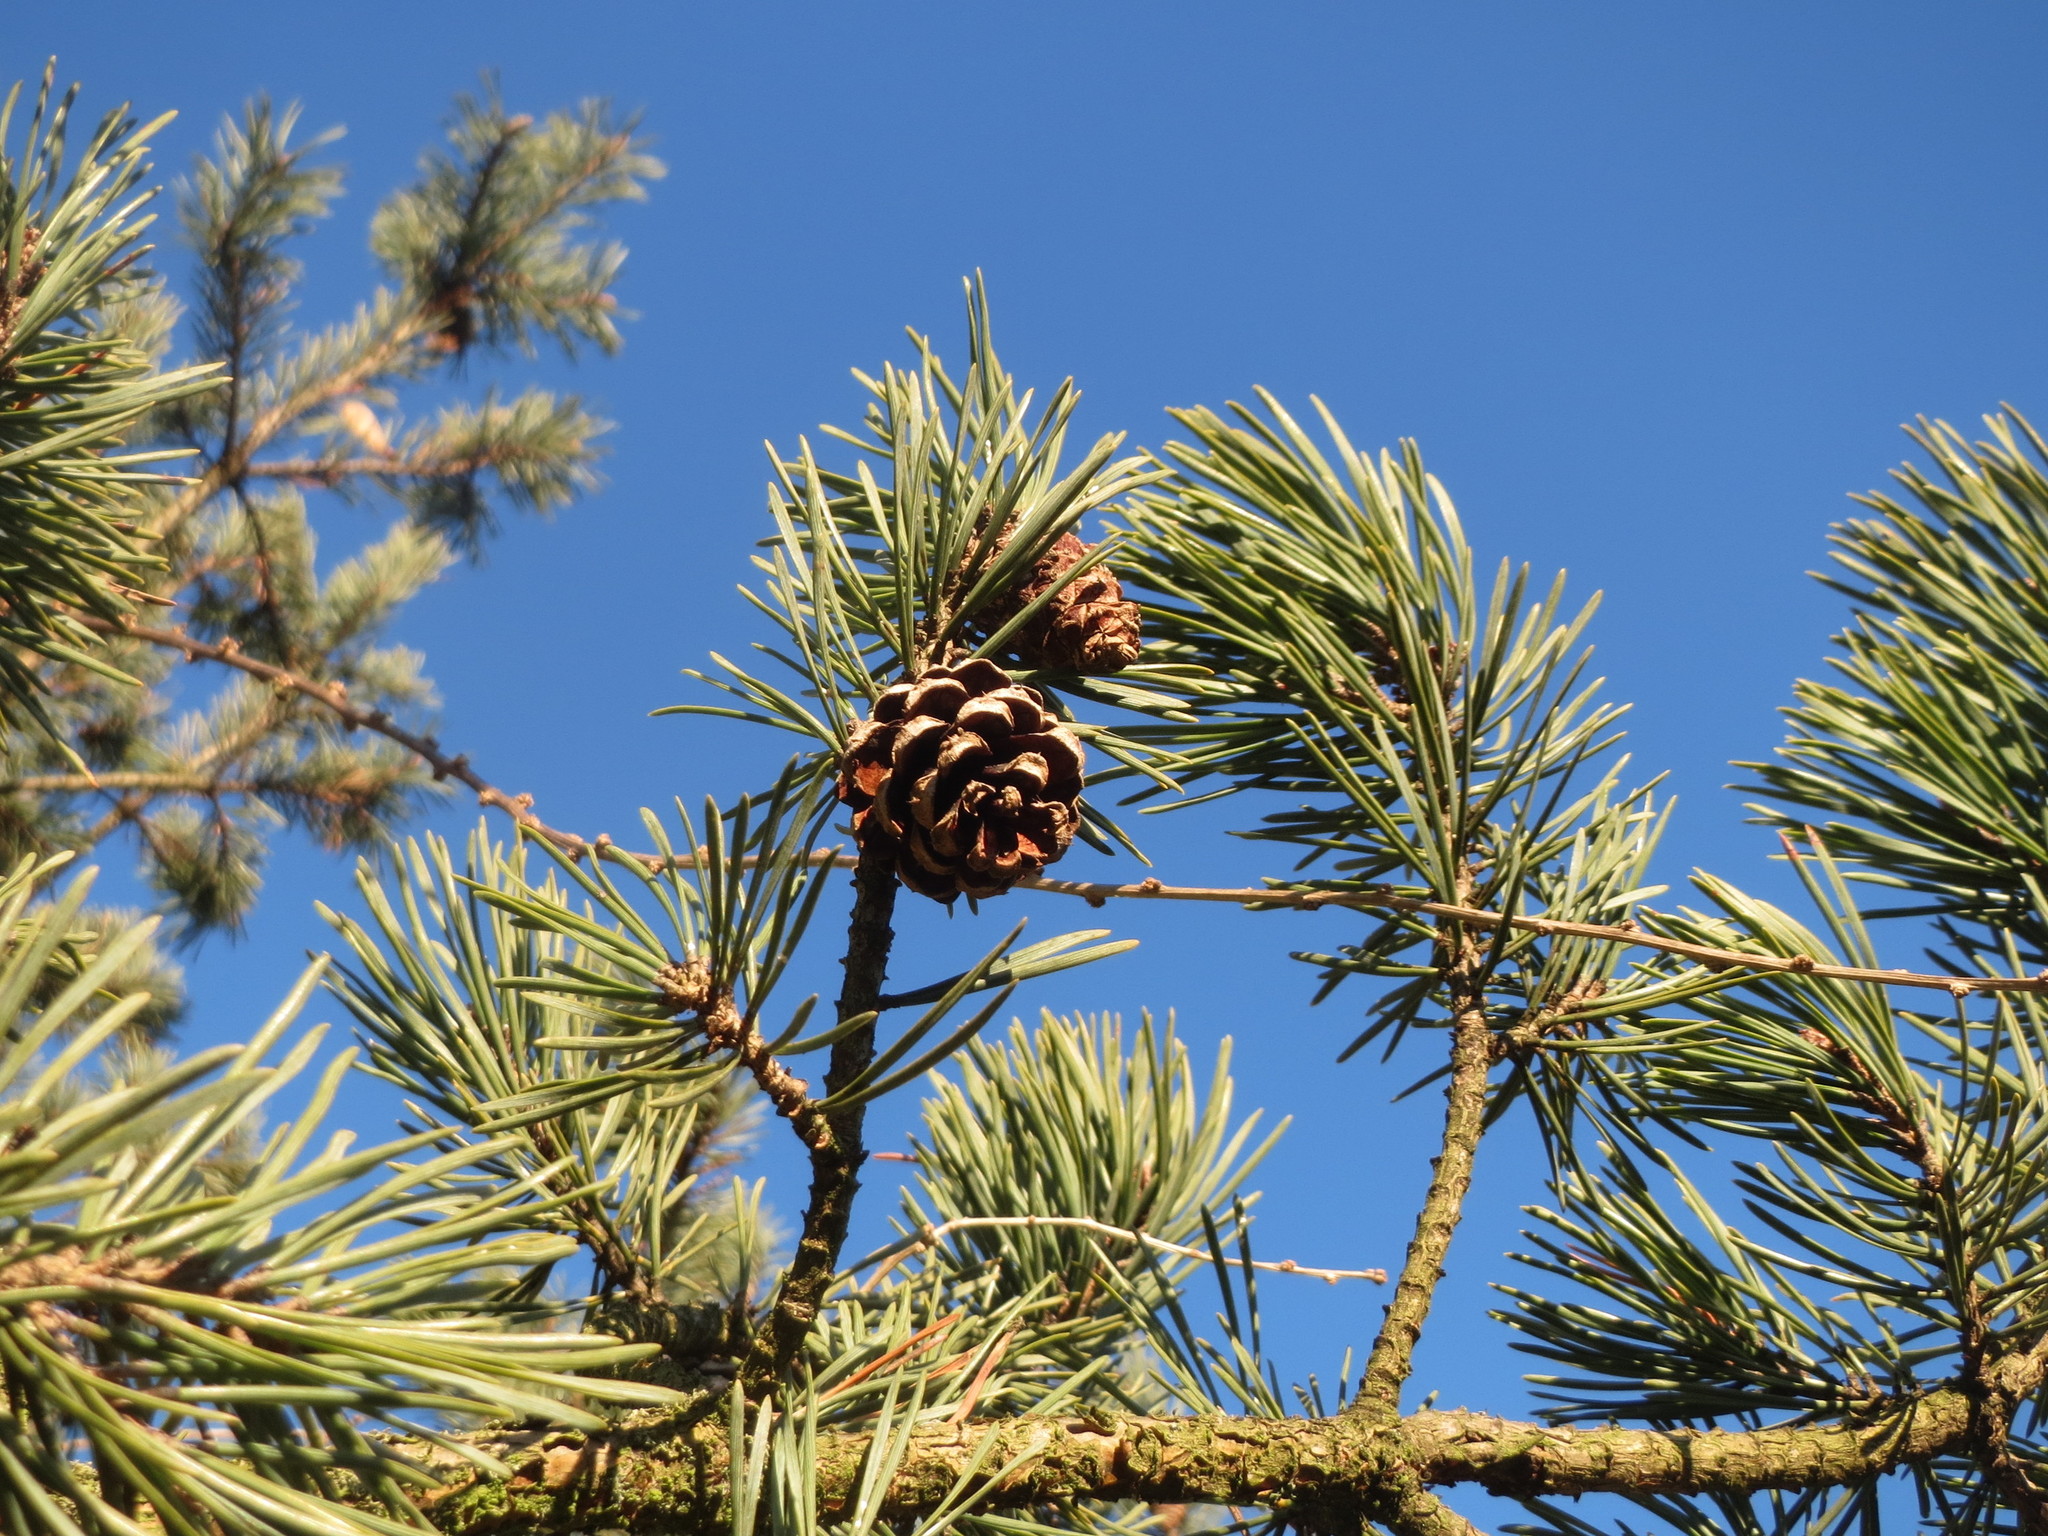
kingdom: Plantae
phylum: Tracheophyta
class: Pinopsida
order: Pinales
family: Pinaceae
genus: Pinus
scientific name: Pinus sylvestris
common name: Scots pine
